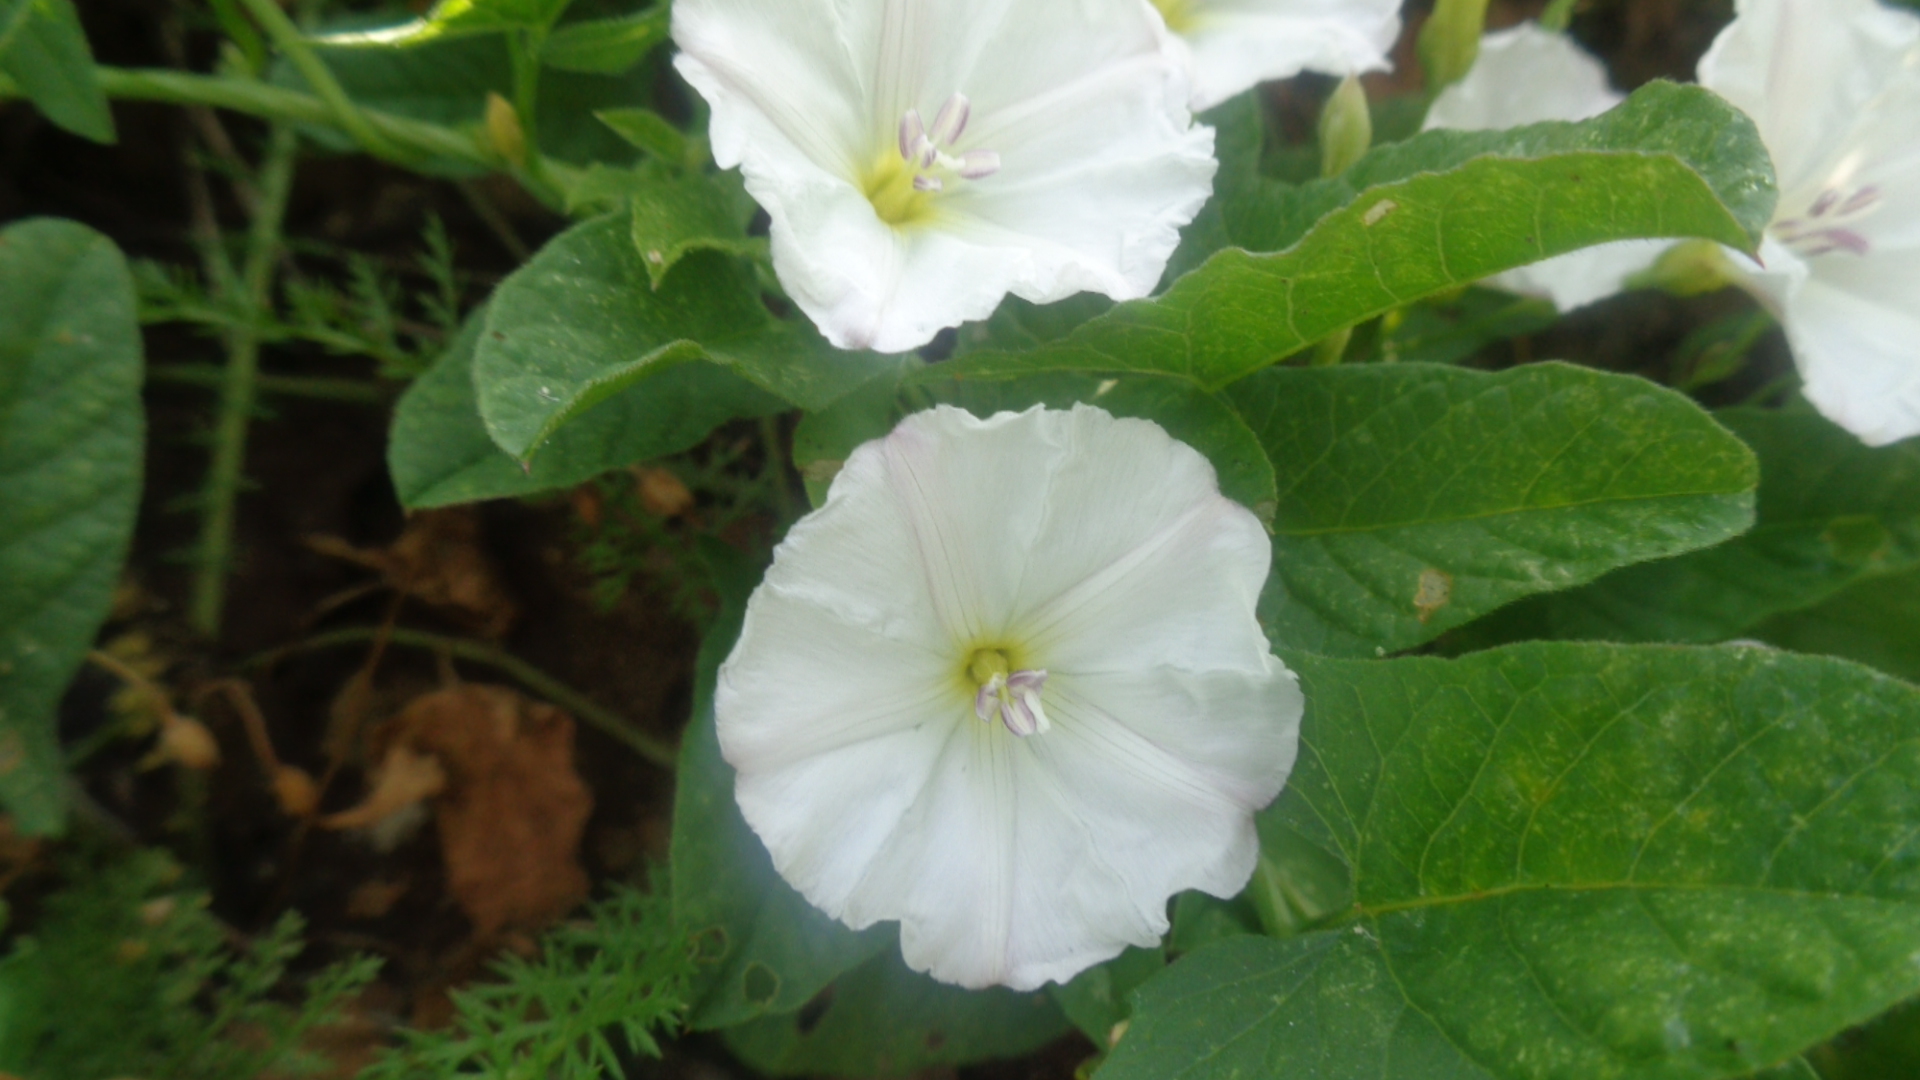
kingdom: Plantae
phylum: Tracheophyta
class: Magnoliopsida
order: Solanales
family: Convolvulaceae
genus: Convolvulus
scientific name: Convolvulus arvensis
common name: Field bindweed
